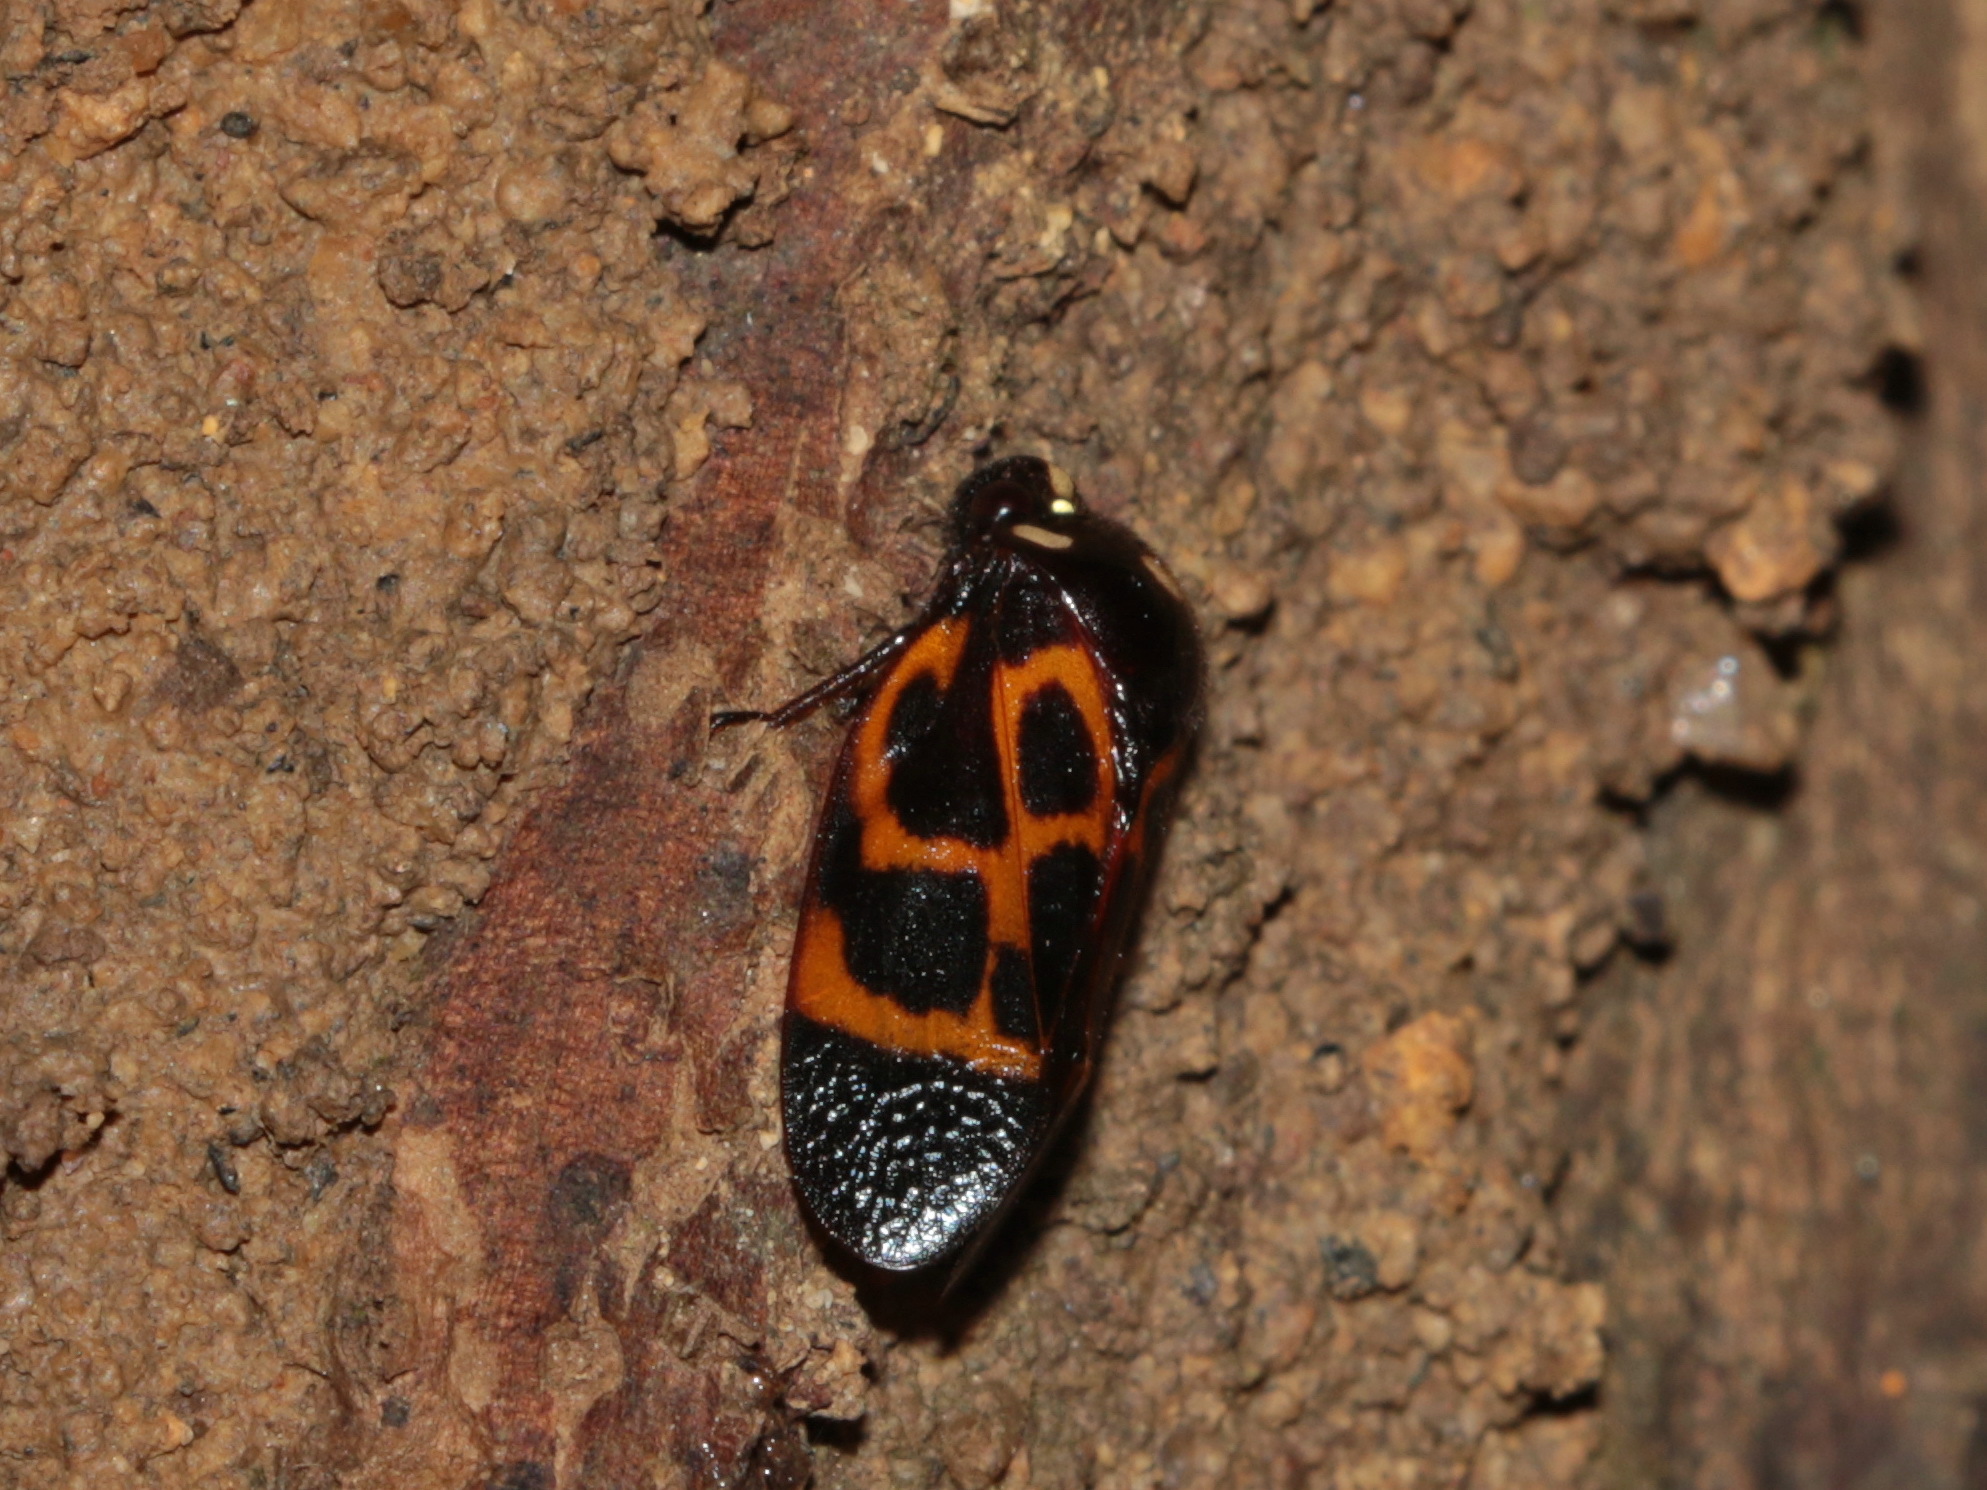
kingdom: Animalia
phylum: Arthropoda
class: Insecta
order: Hemiptera
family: Cercopidae
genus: Trichoscarta
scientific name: Trichoscarta chersonesia
